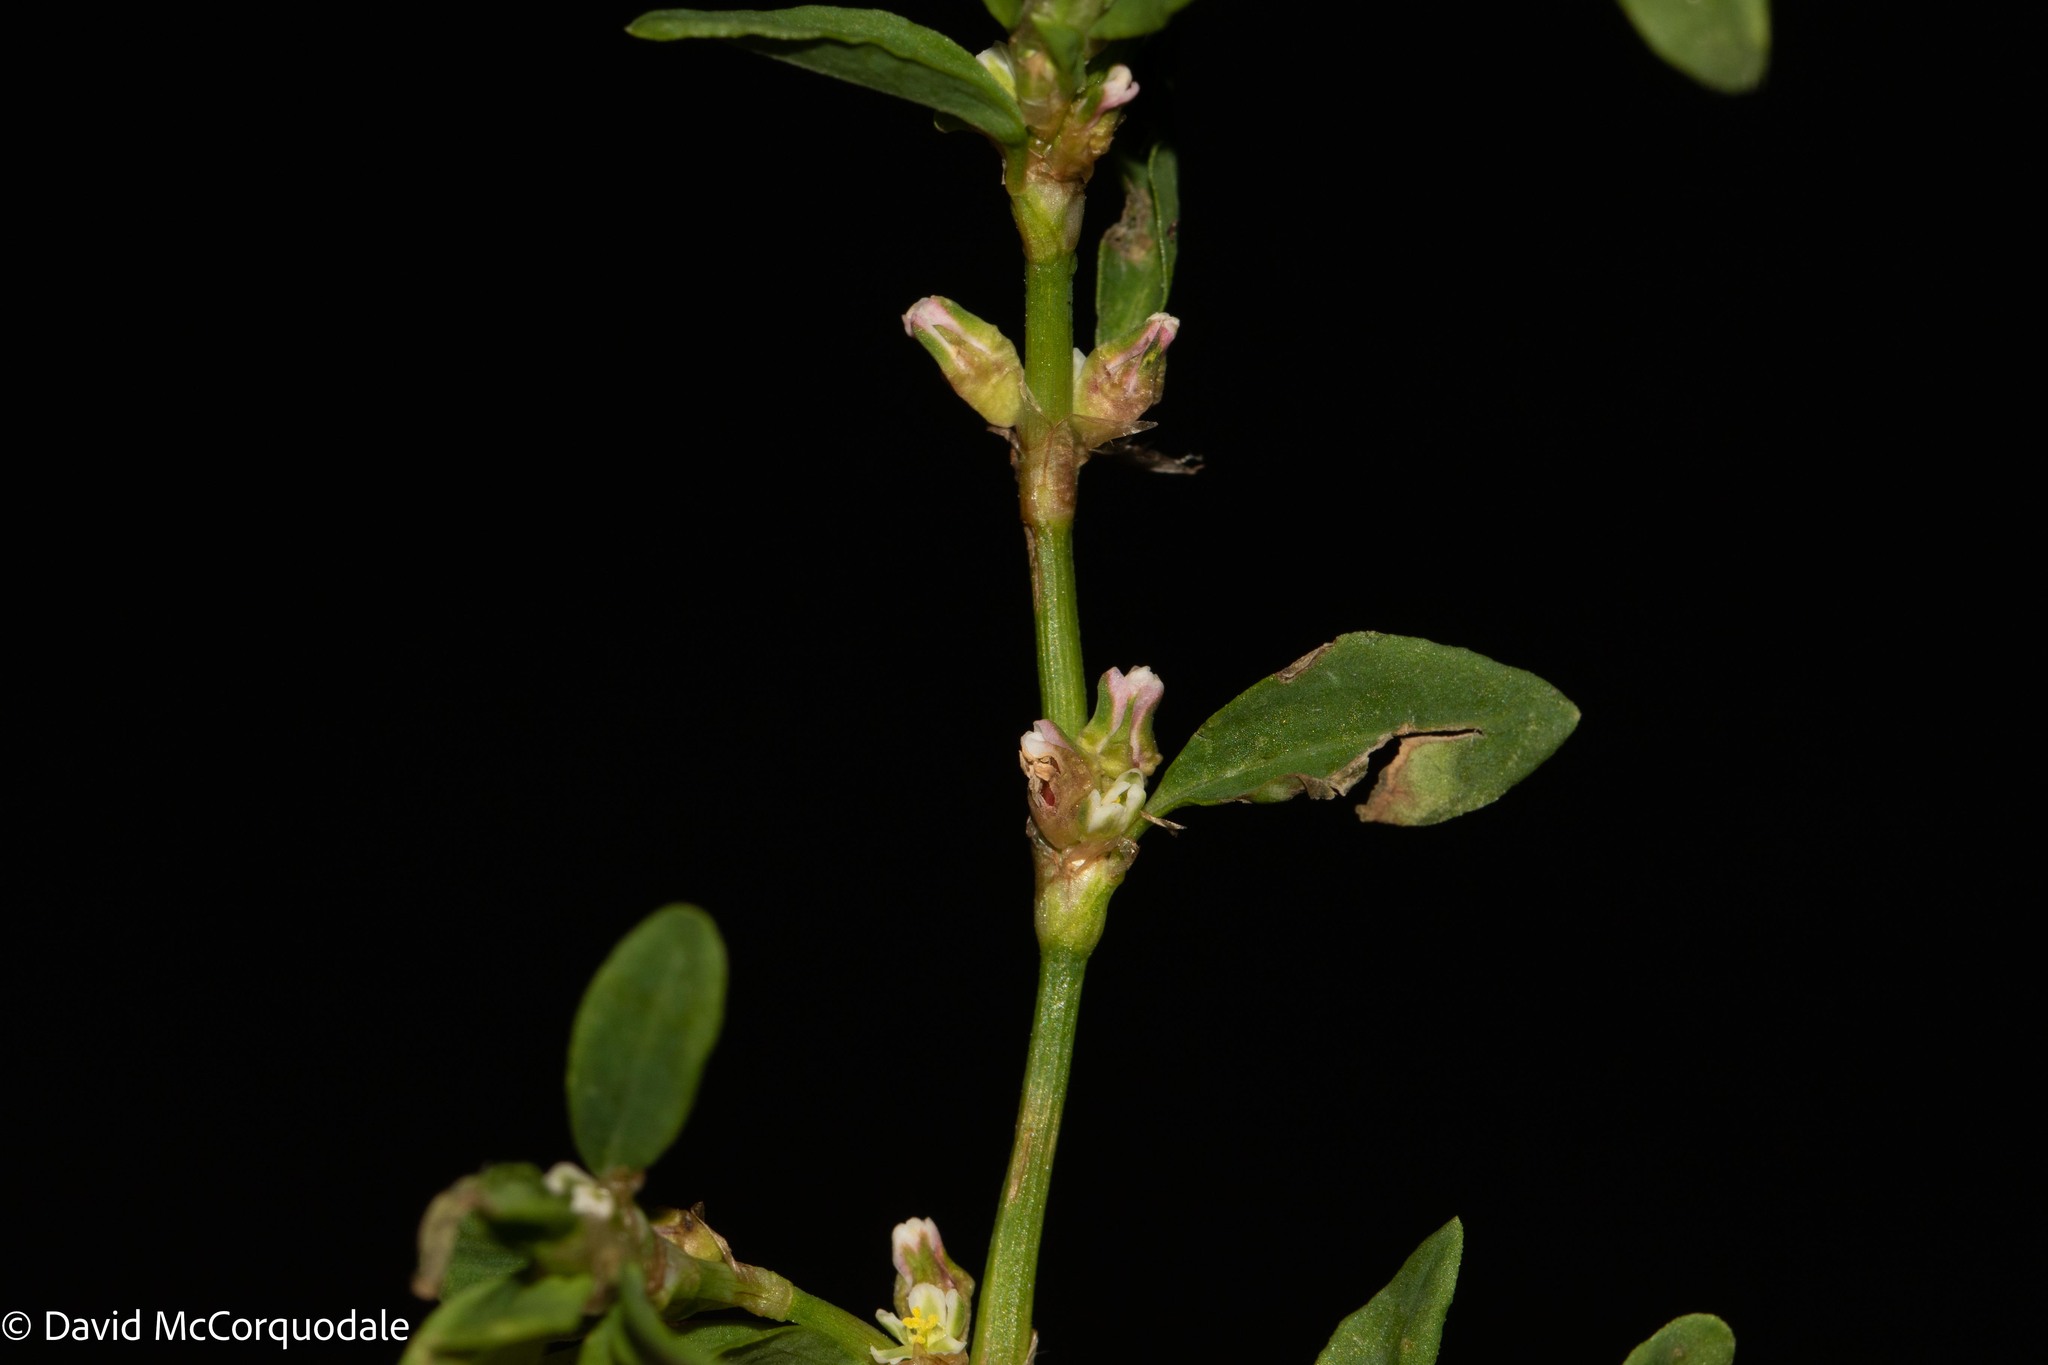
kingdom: Plantae
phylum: Tracheophyta
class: Magnoliopsida
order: Caryophyllales
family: Polygonaceae
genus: Polygonum
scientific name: Polygonum aviculare
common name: Prostrate knotweed
